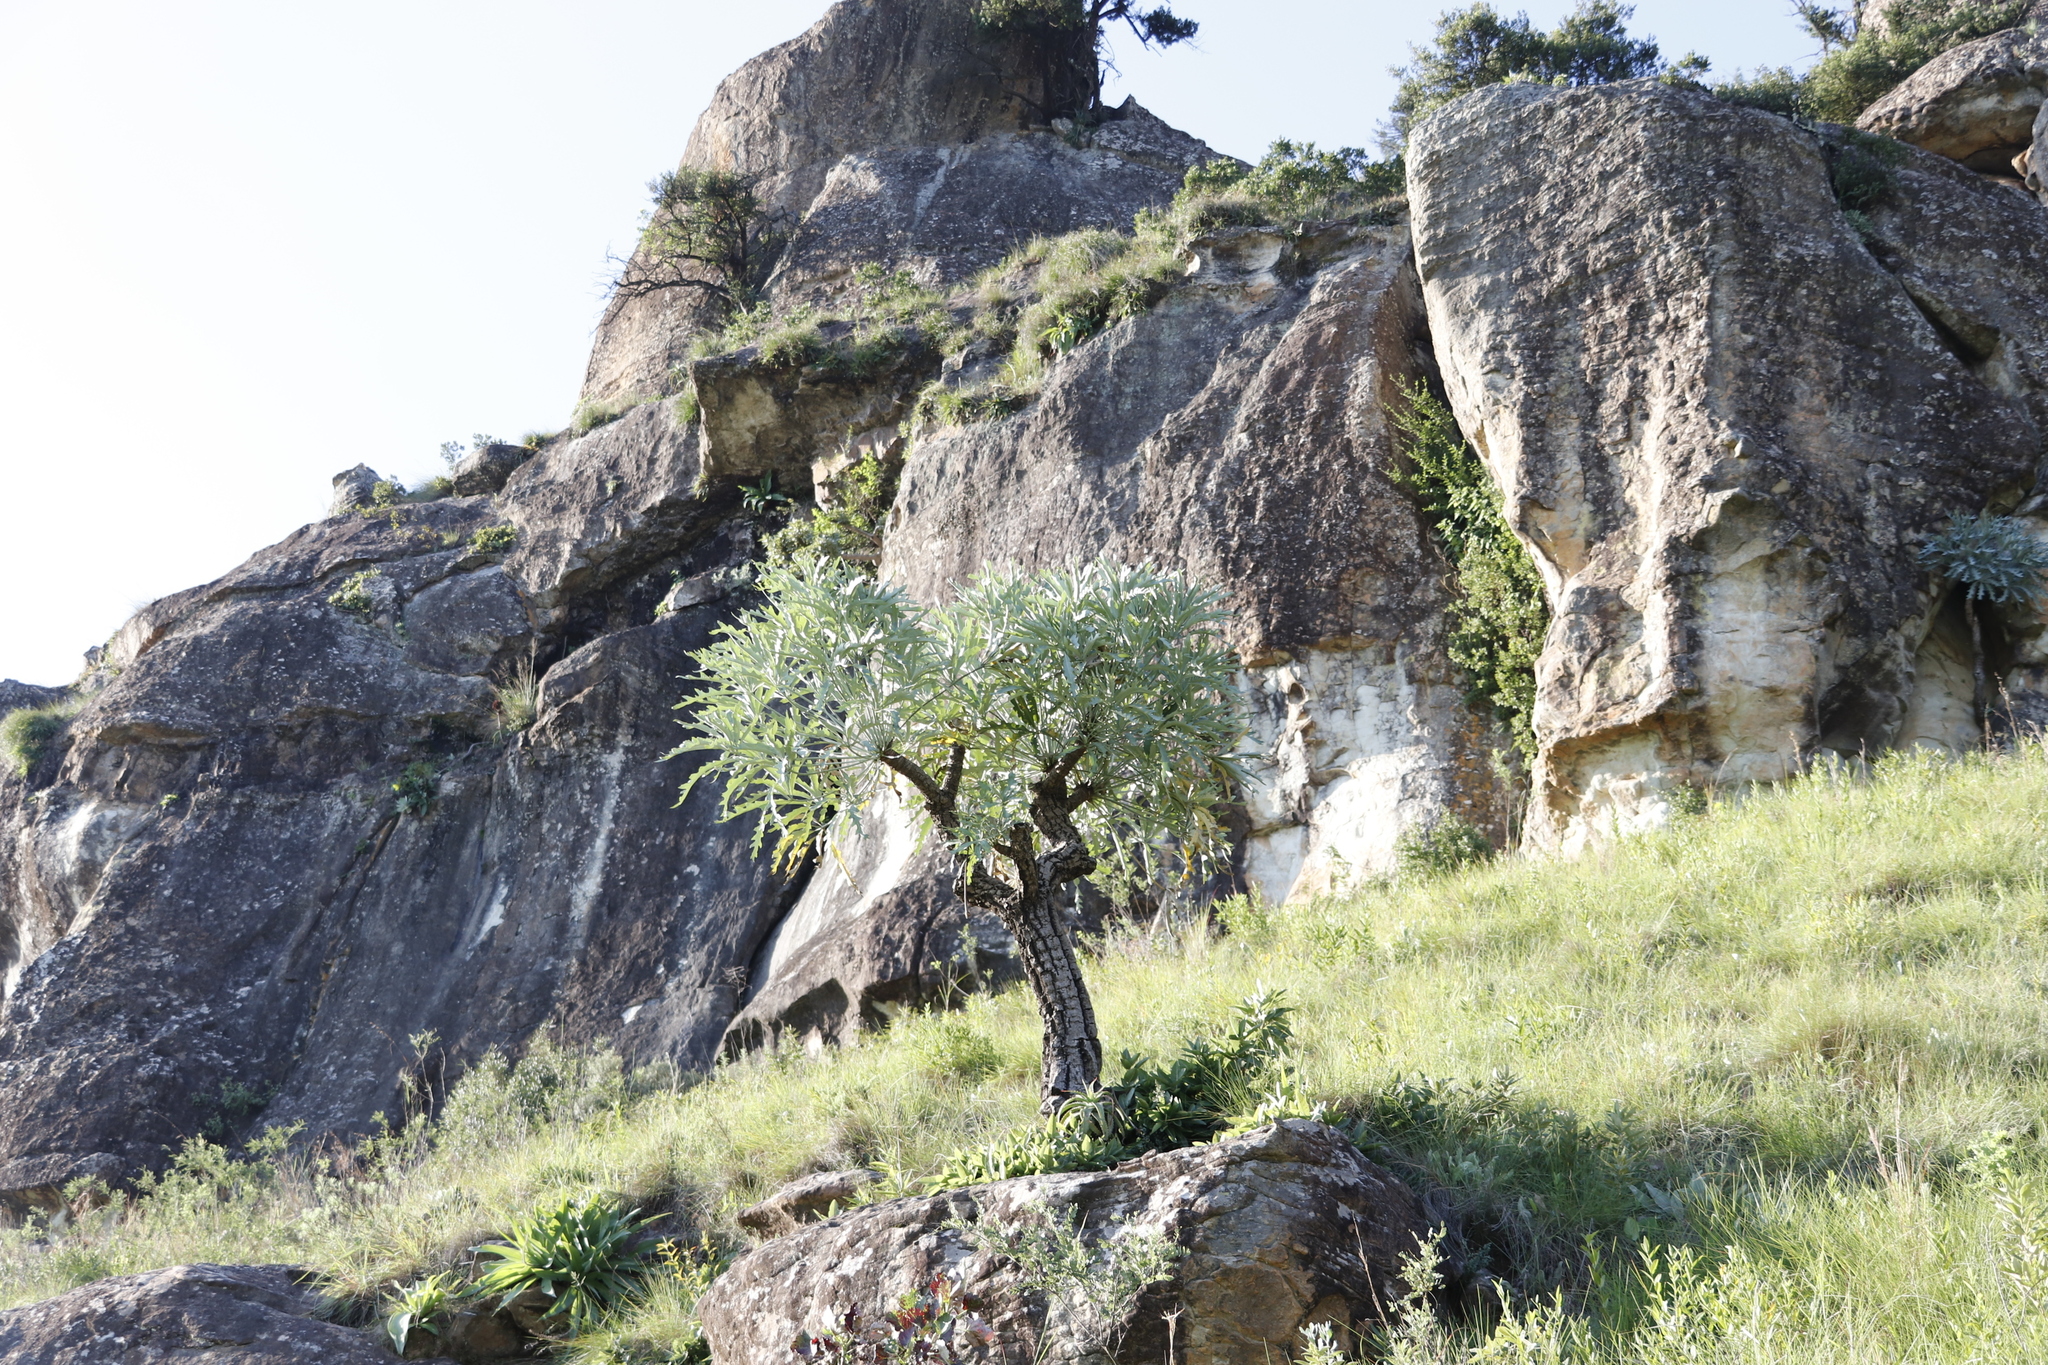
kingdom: Plantae
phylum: Tracheophyta
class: Magnoliopsida
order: Apiales
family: Araliaceae
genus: Cussonia
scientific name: Cussonia paniculata
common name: Cabbagetree
